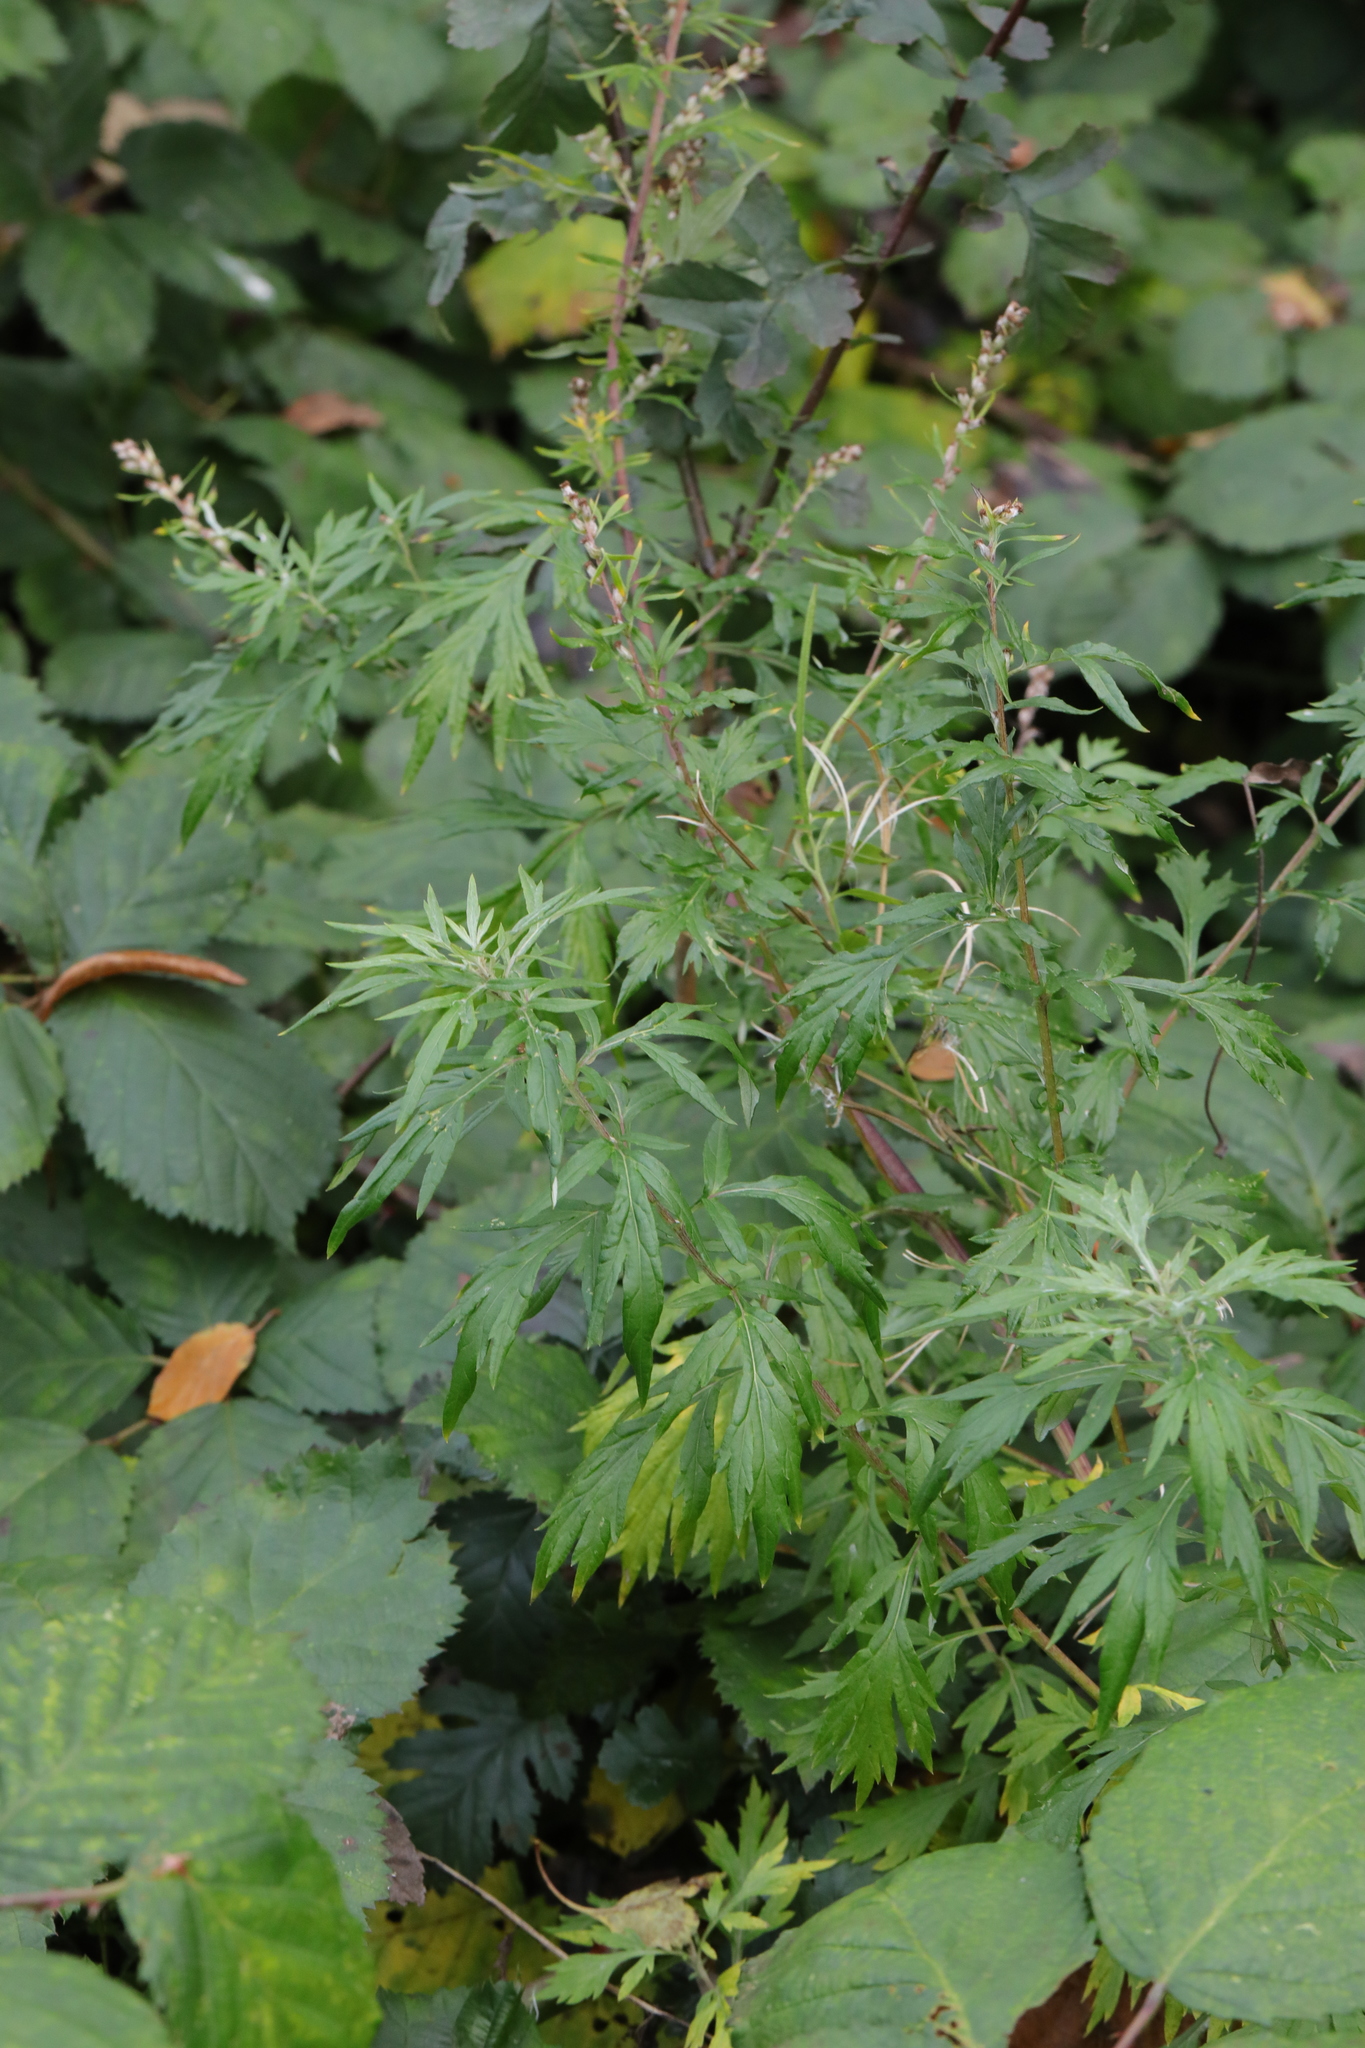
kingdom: Plantae
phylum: Tracheophyta
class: Magnoliopsida
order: Asterales
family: Asteraceae
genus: Artemisia
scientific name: Artemisia vulgaris
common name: Mugwort
